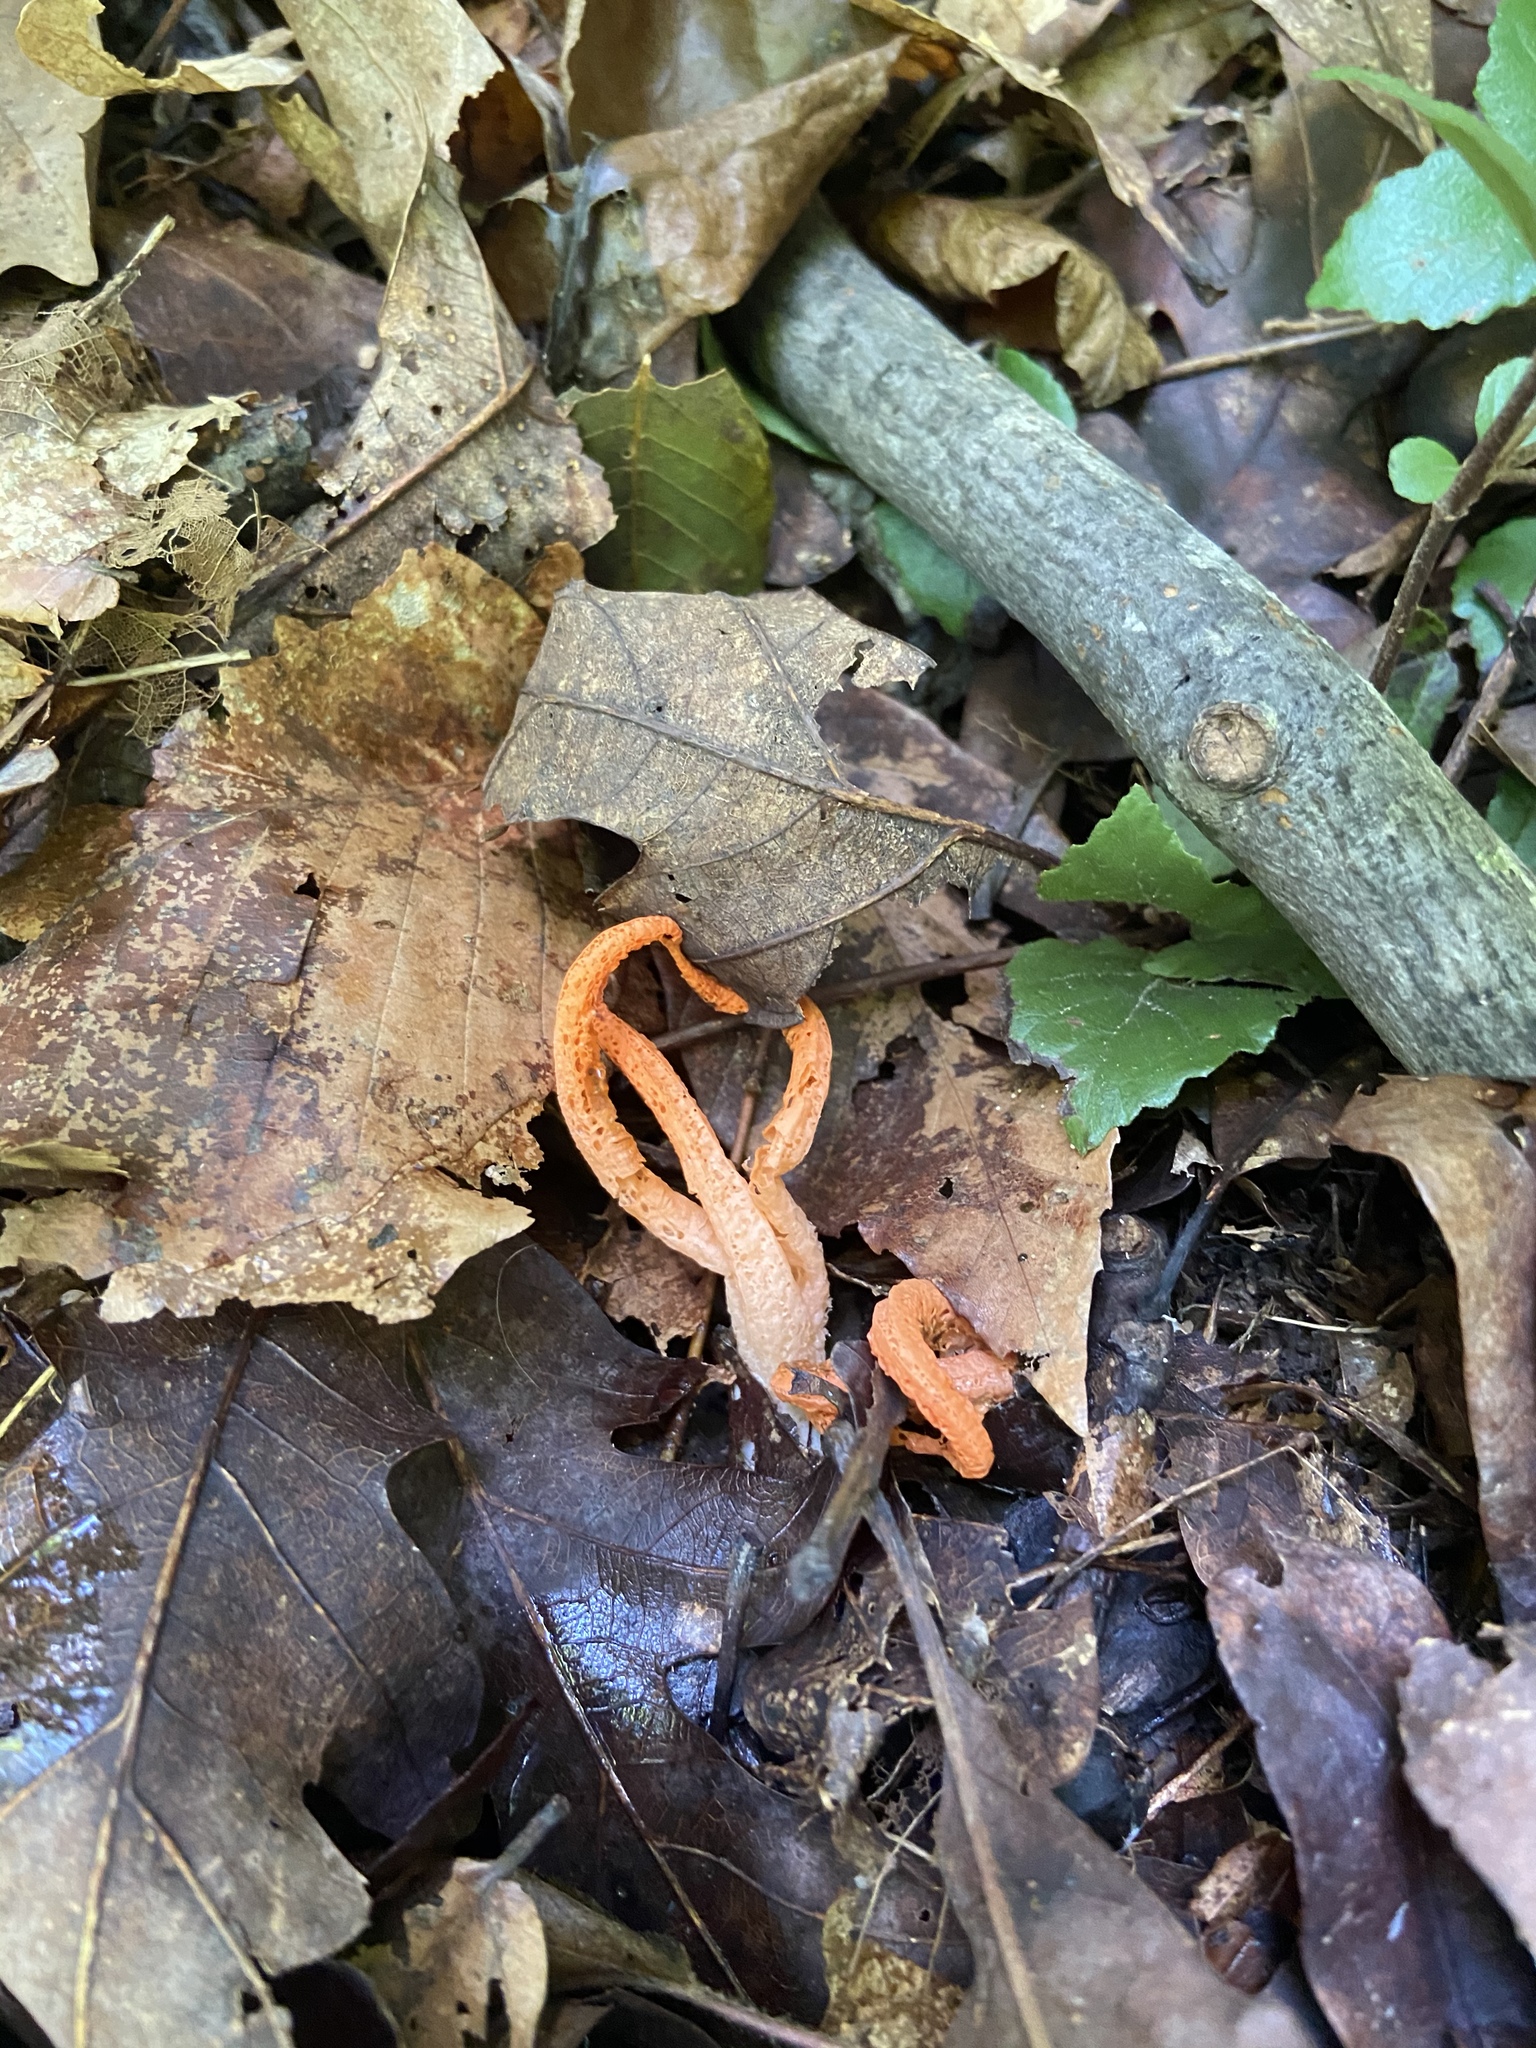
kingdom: Fungi
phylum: Basidiomycota
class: Agaricomycetes
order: Phallales
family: Phallaceae
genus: Pseudocolus
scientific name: Pseudocolus fusiformis
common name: Stinky squid
